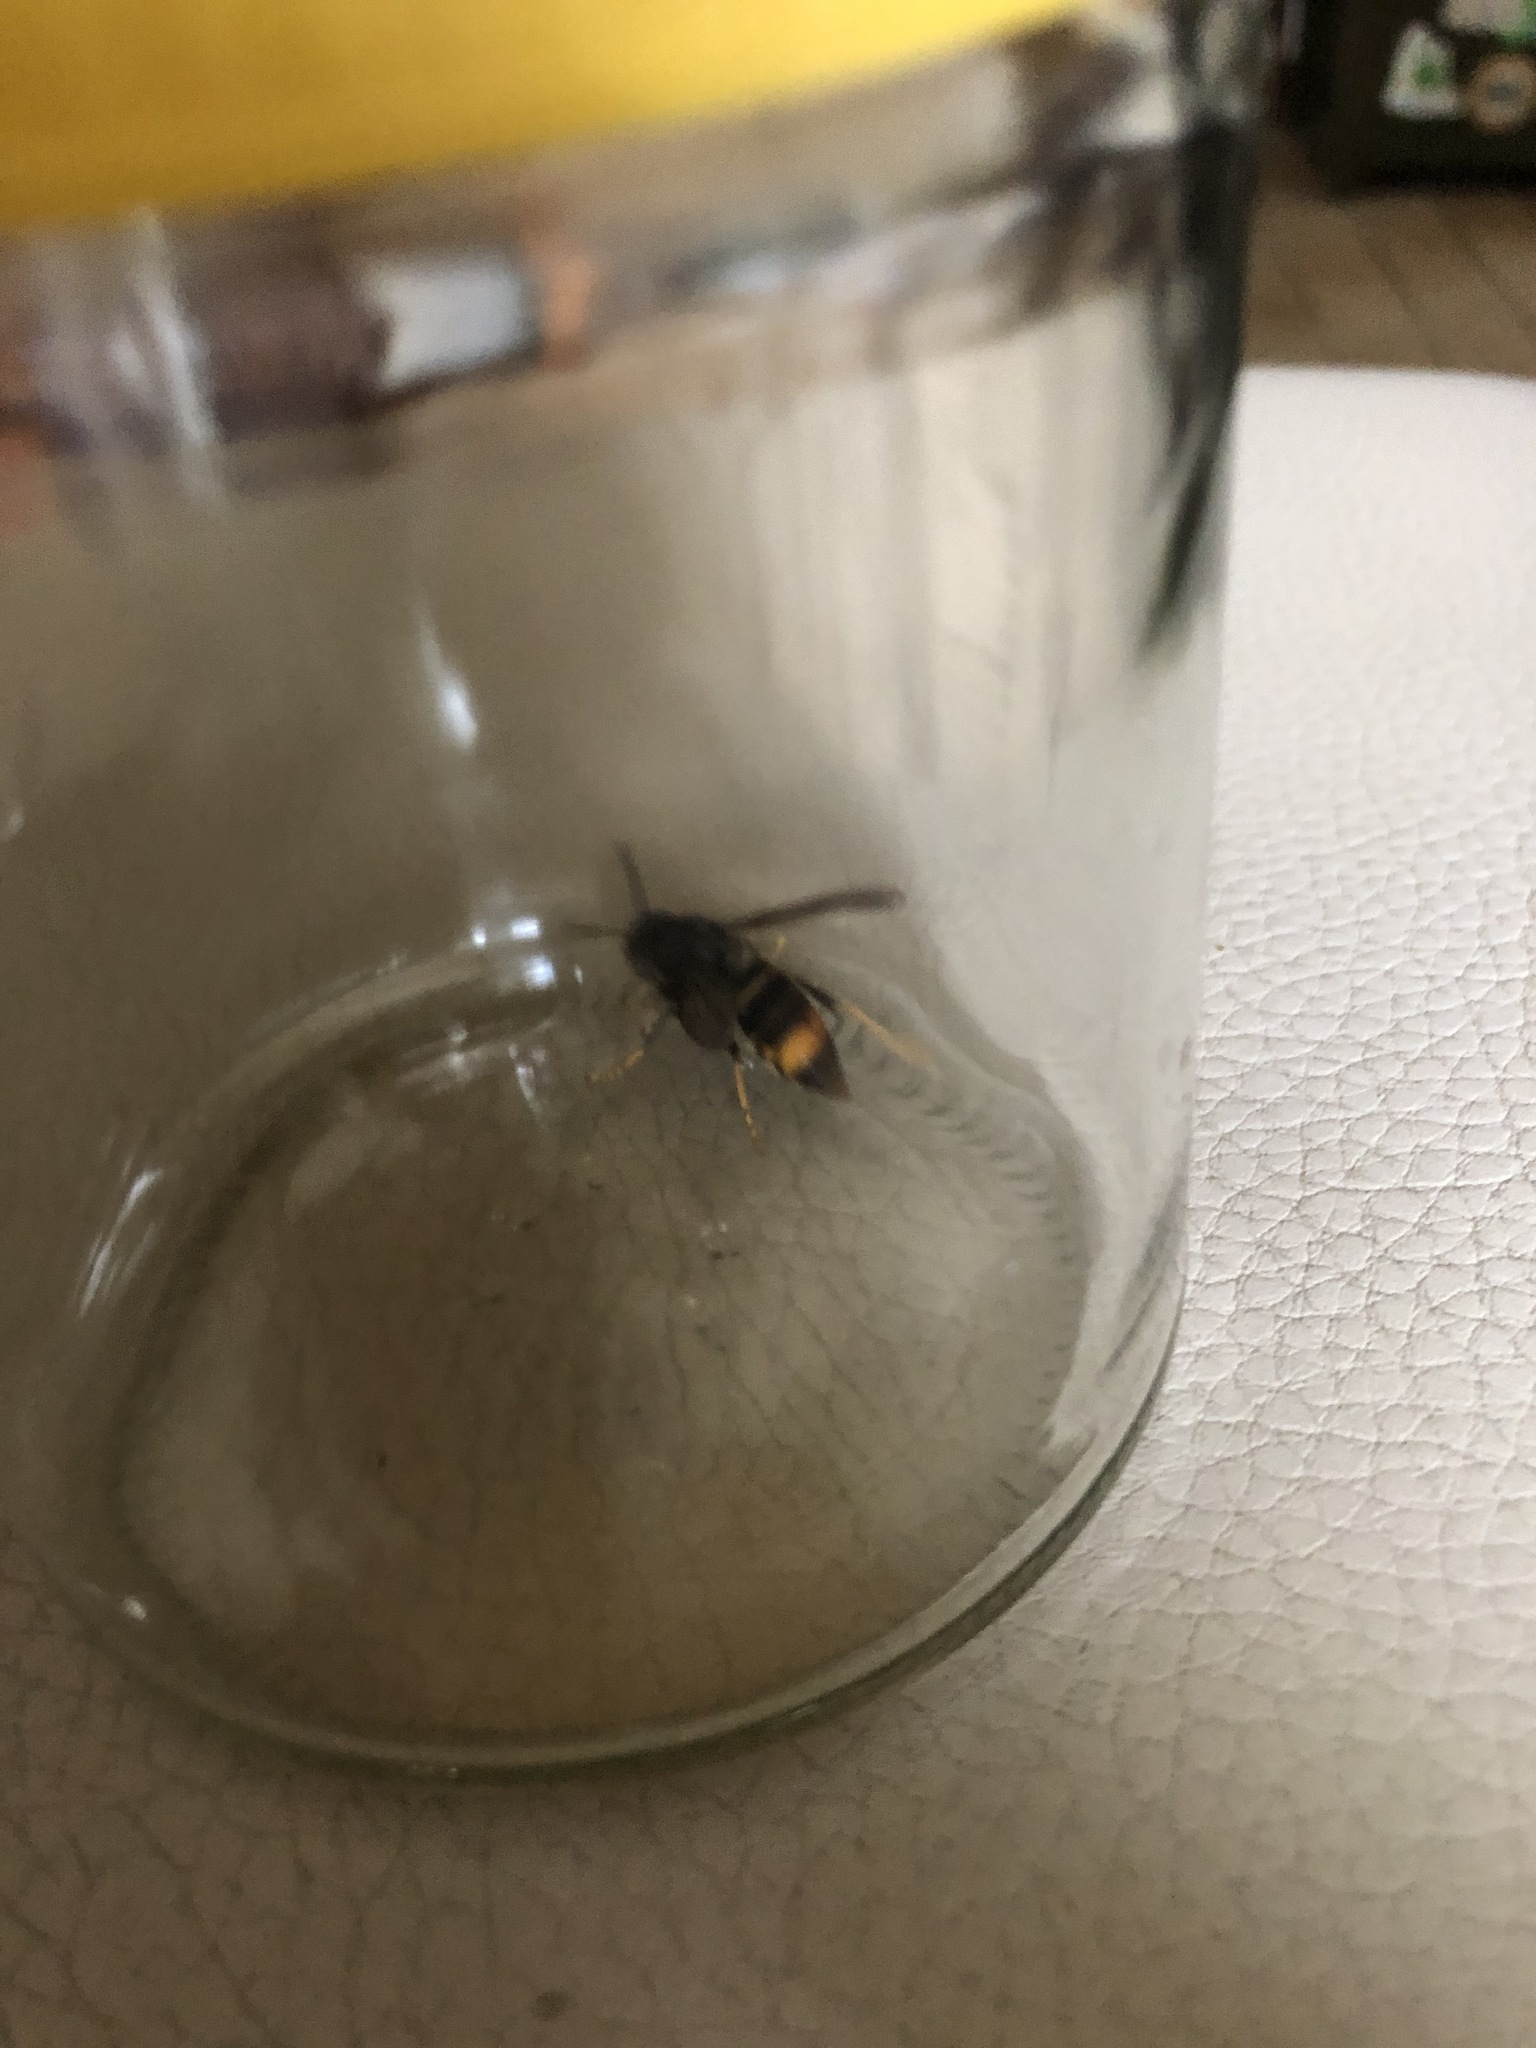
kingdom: Animalia
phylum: Arthropoda
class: Insecta
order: Hymenoptera
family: Vespidae
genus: Vespa
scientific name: Vespa velutina
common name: Asian hornet
